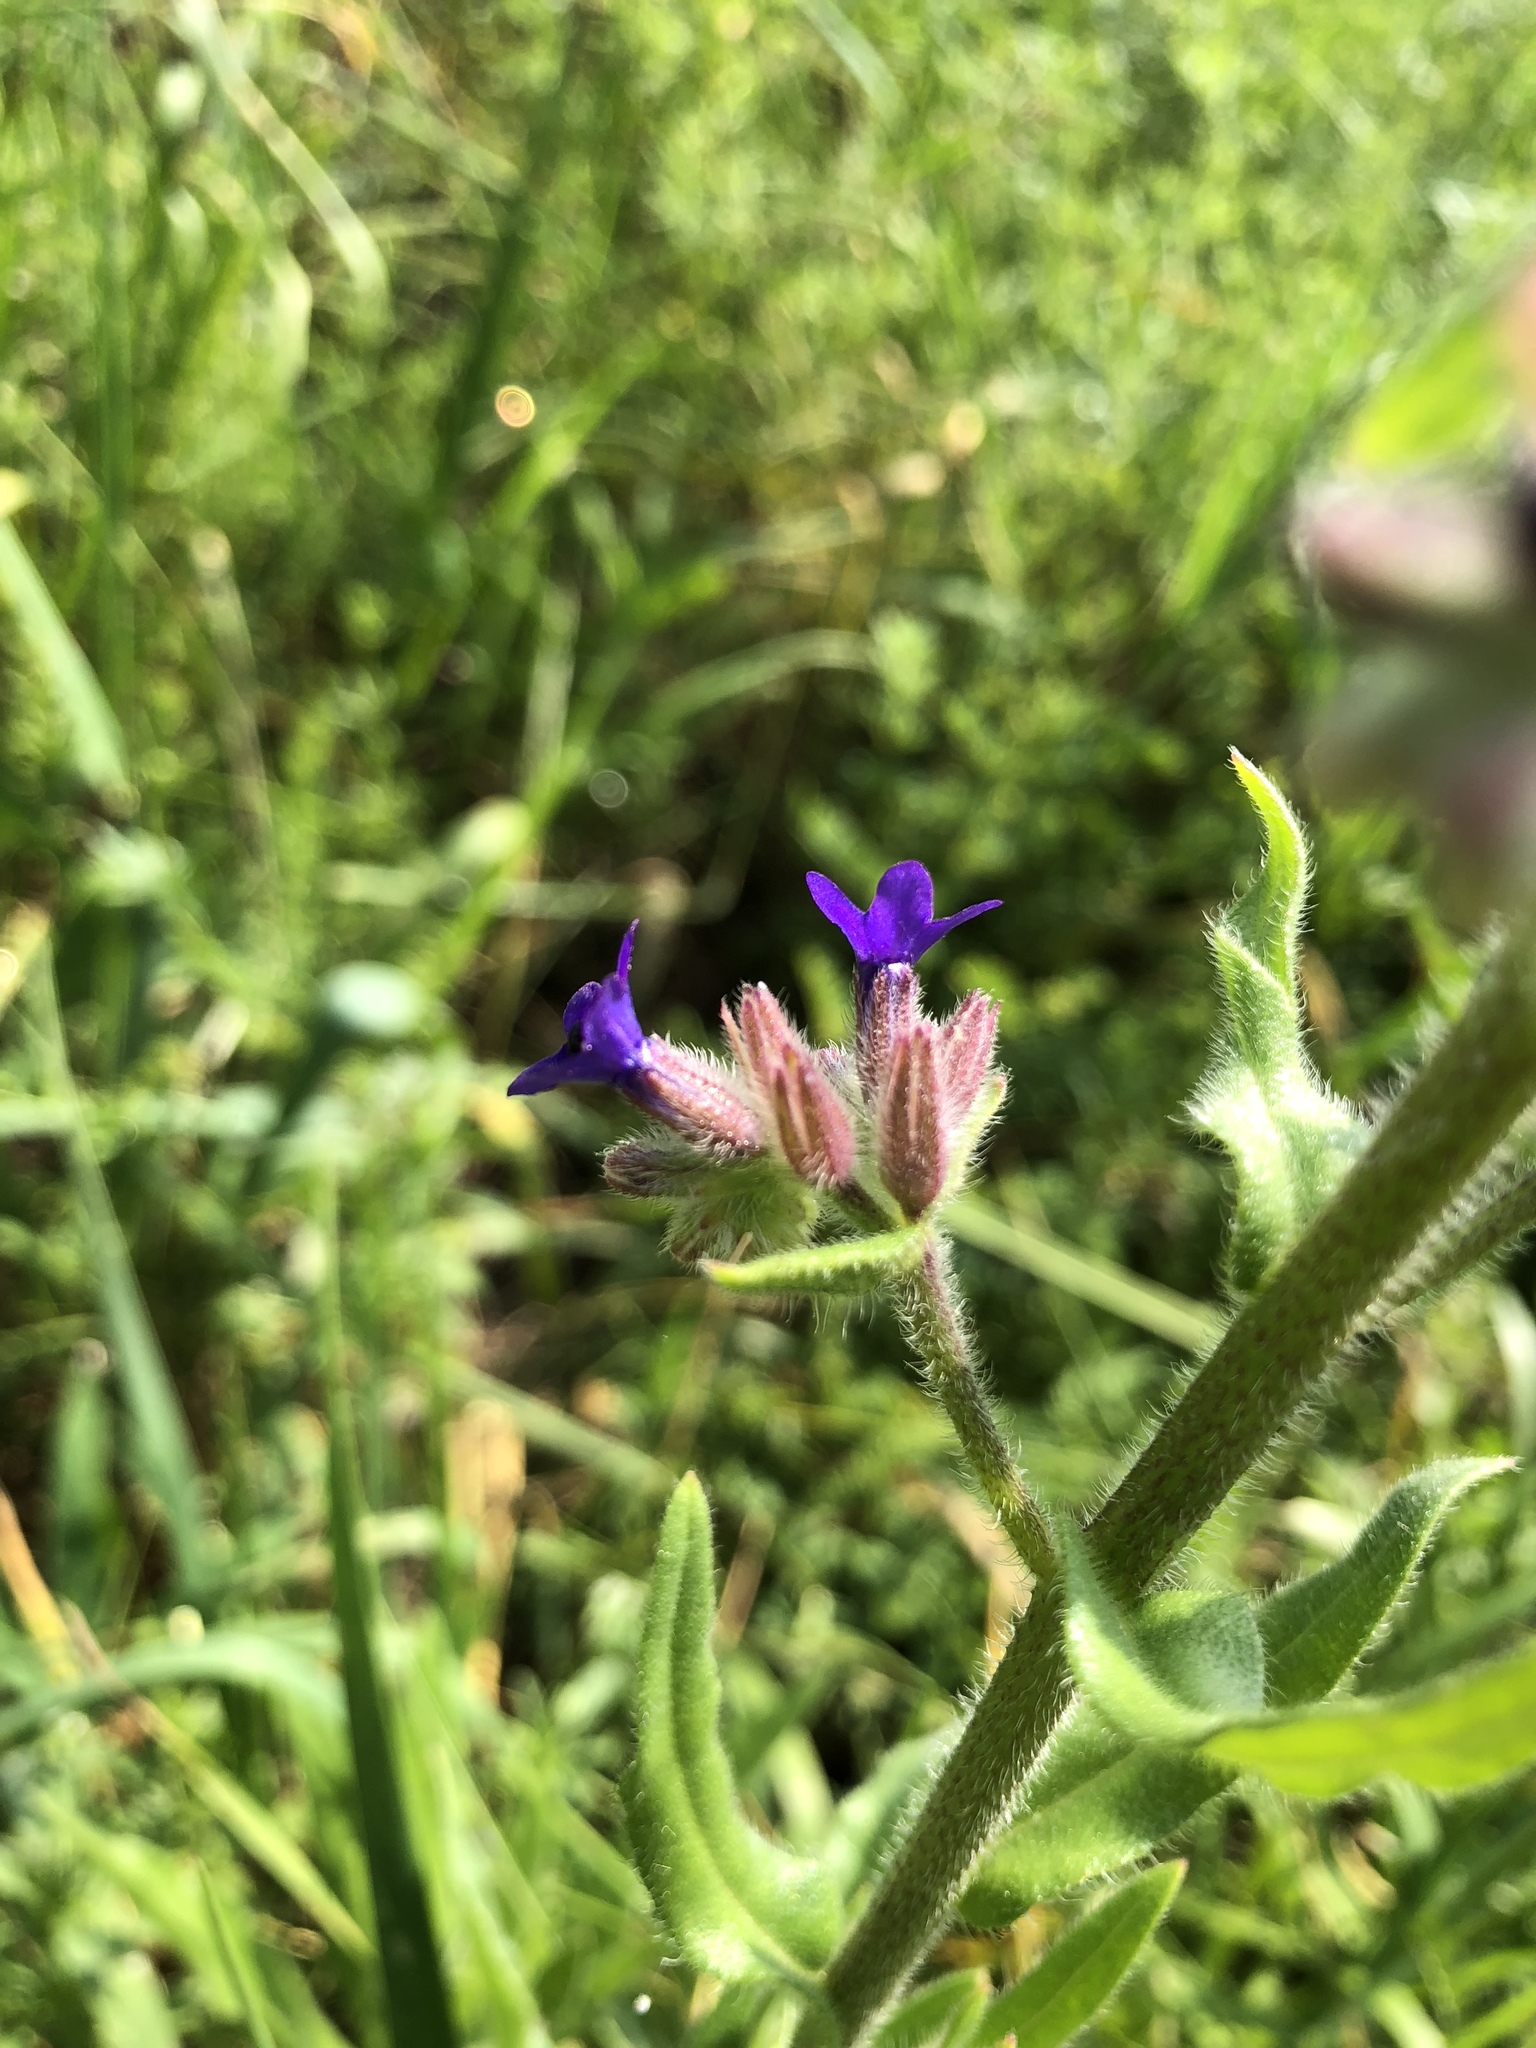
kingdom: Plantae
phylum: Tracheophyta
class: Magnoliopsida
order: Boraginales
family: Boraginaceae
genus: Anchusa
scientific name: Anchusa officinalis
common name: Alkanet
